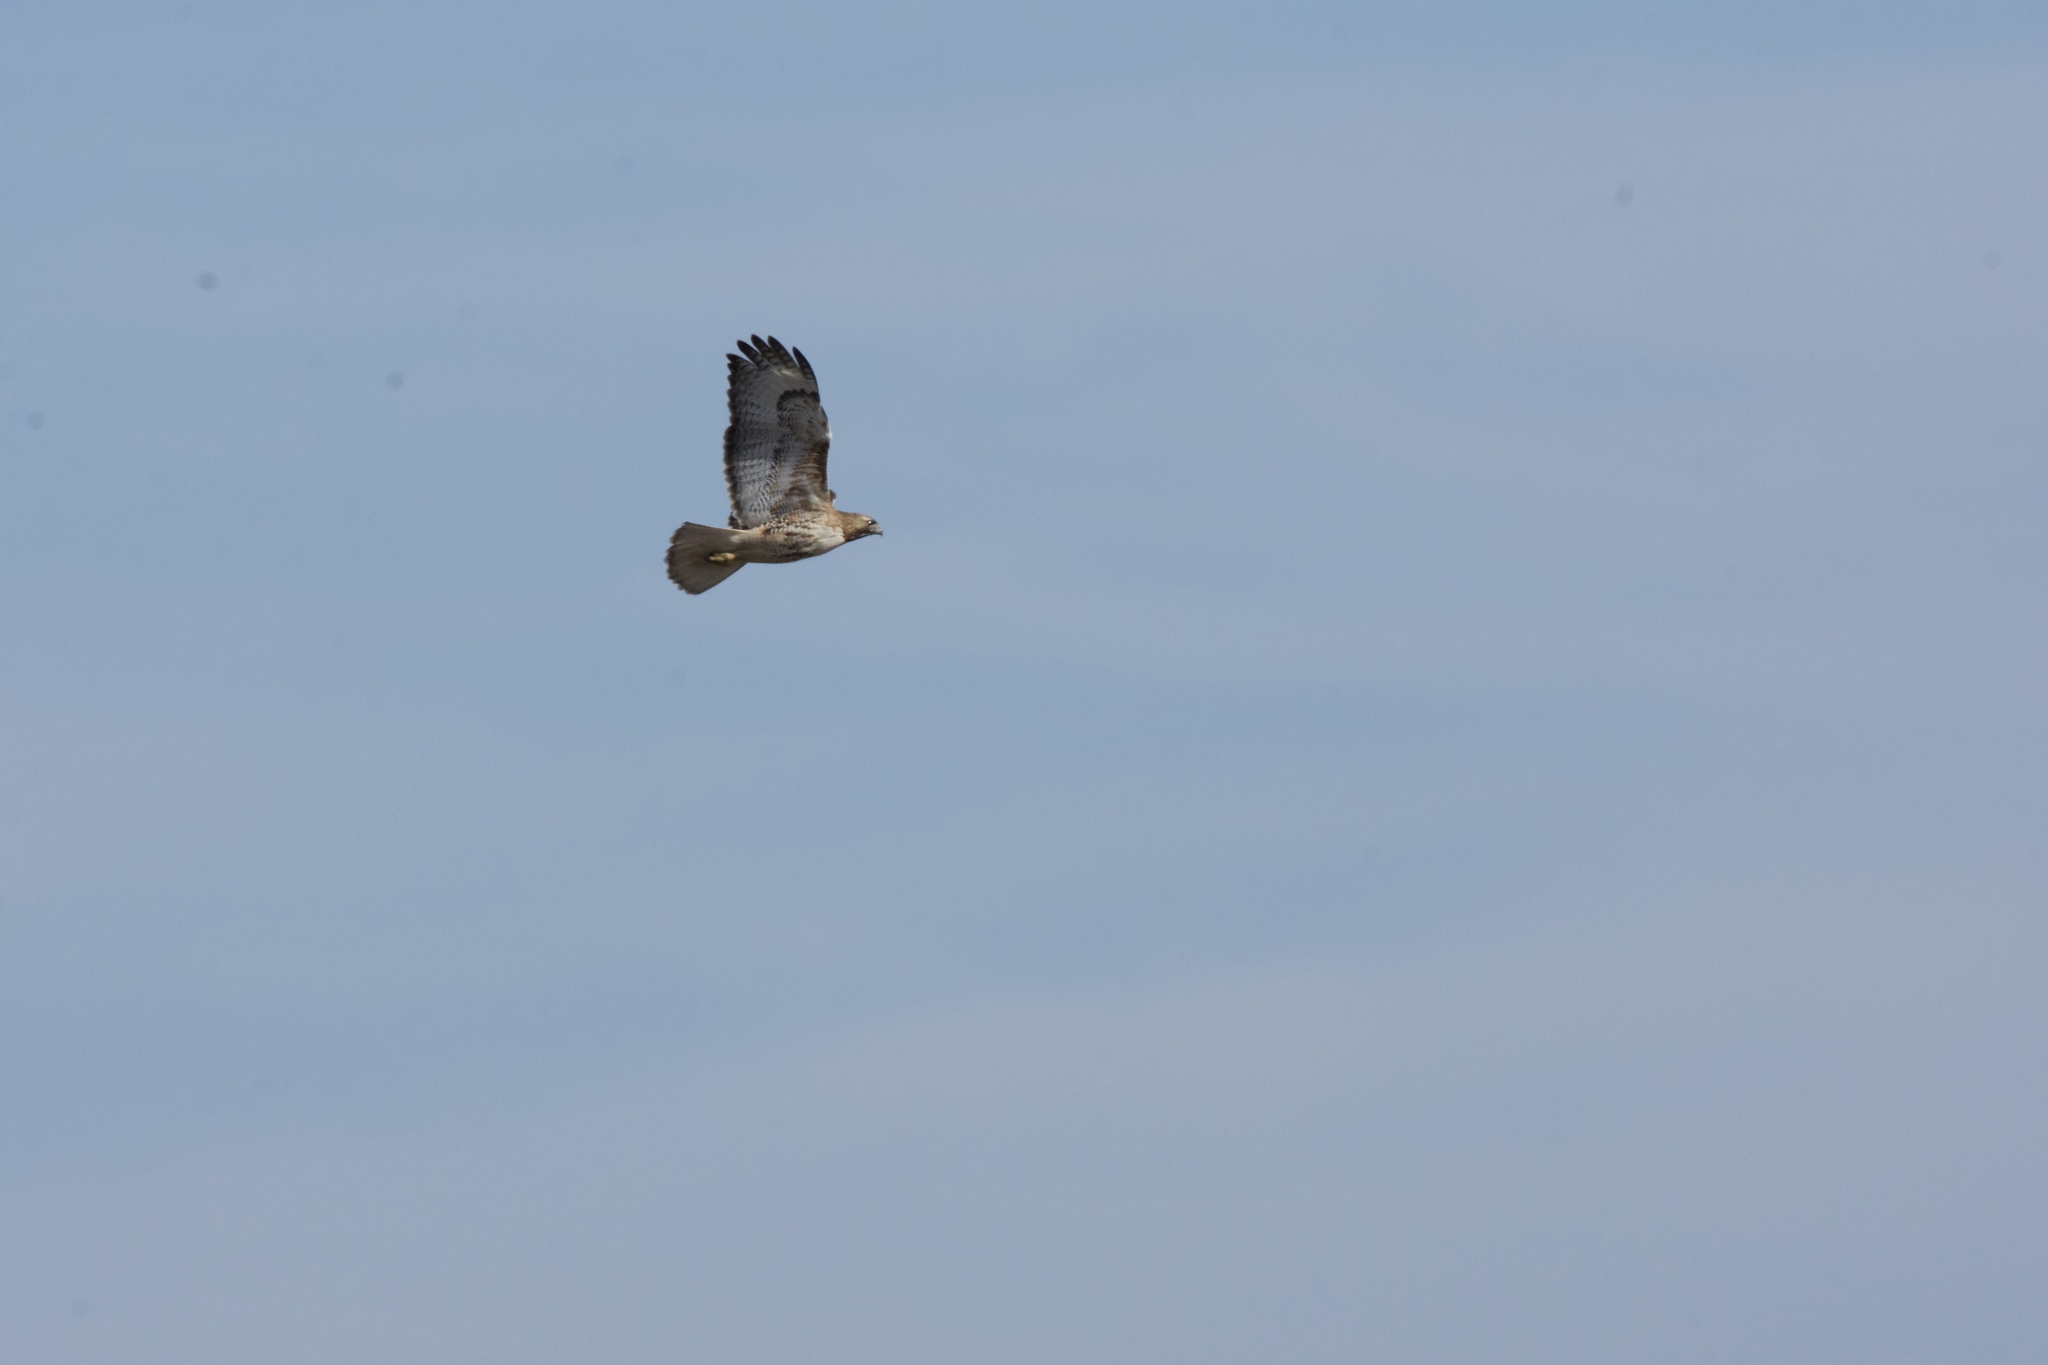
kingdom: Animalia
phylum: Chordata
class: Aves
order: Accipitriformes
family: Accipitridae
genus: Buteo
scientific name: Buteo jamaicensis
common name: Red-tailed hawk
